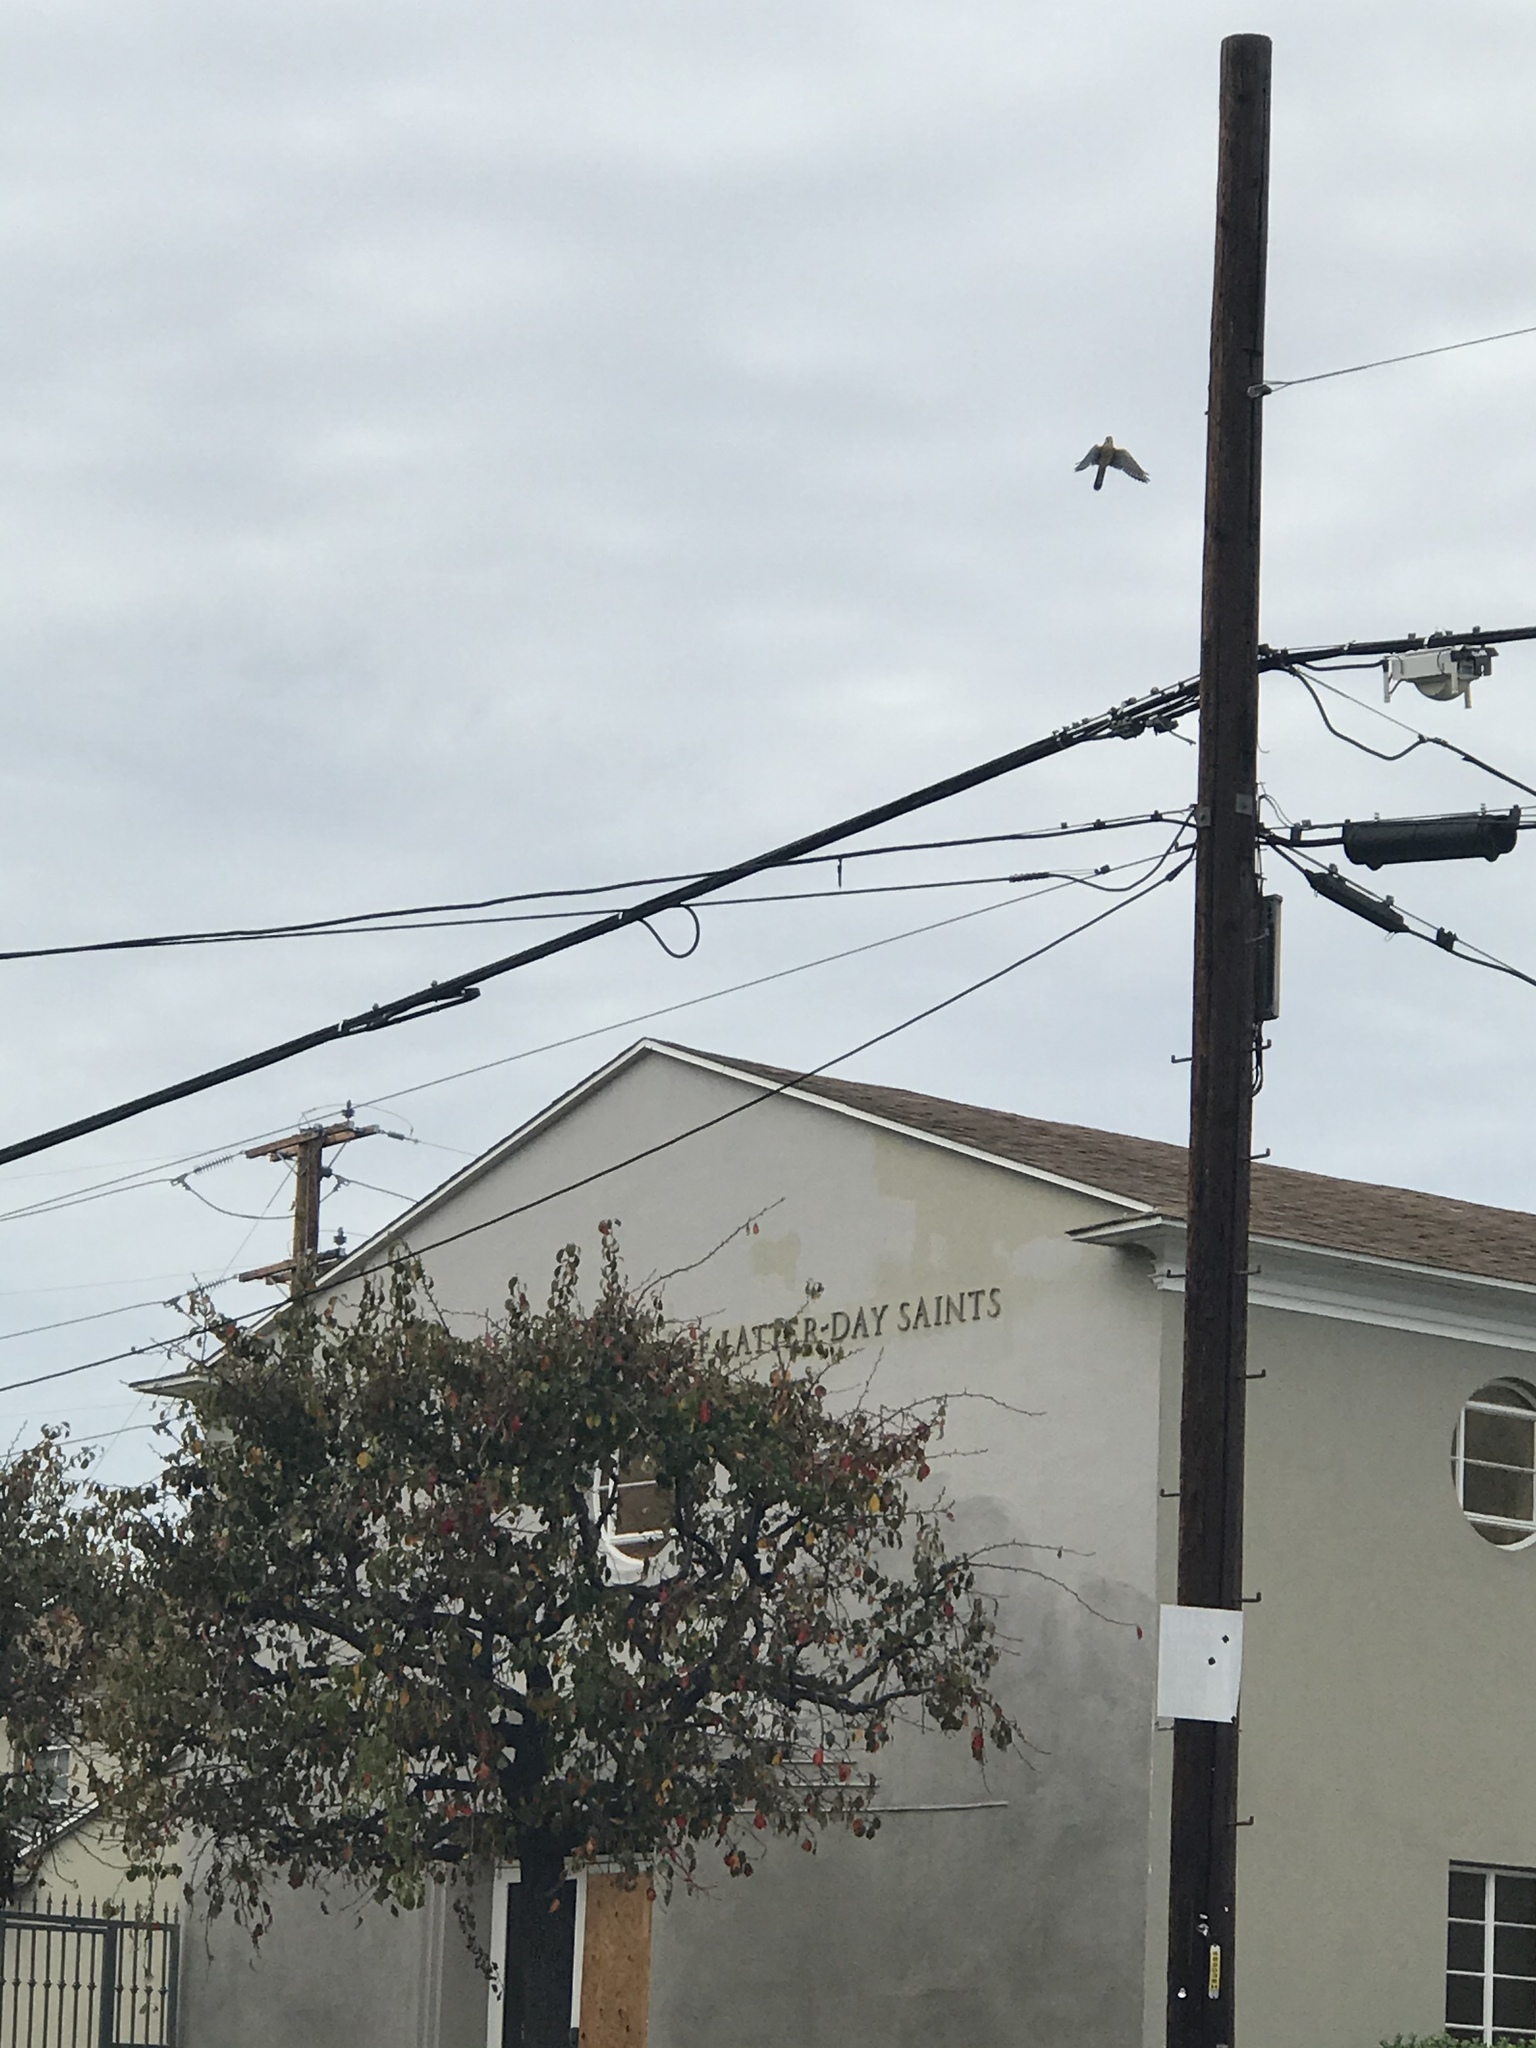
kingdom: Animalia
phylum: Chordata
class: Aves
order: Falconiformes
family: Falconidae
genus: Falco
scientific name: Falco sparverius
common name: American kestrel
